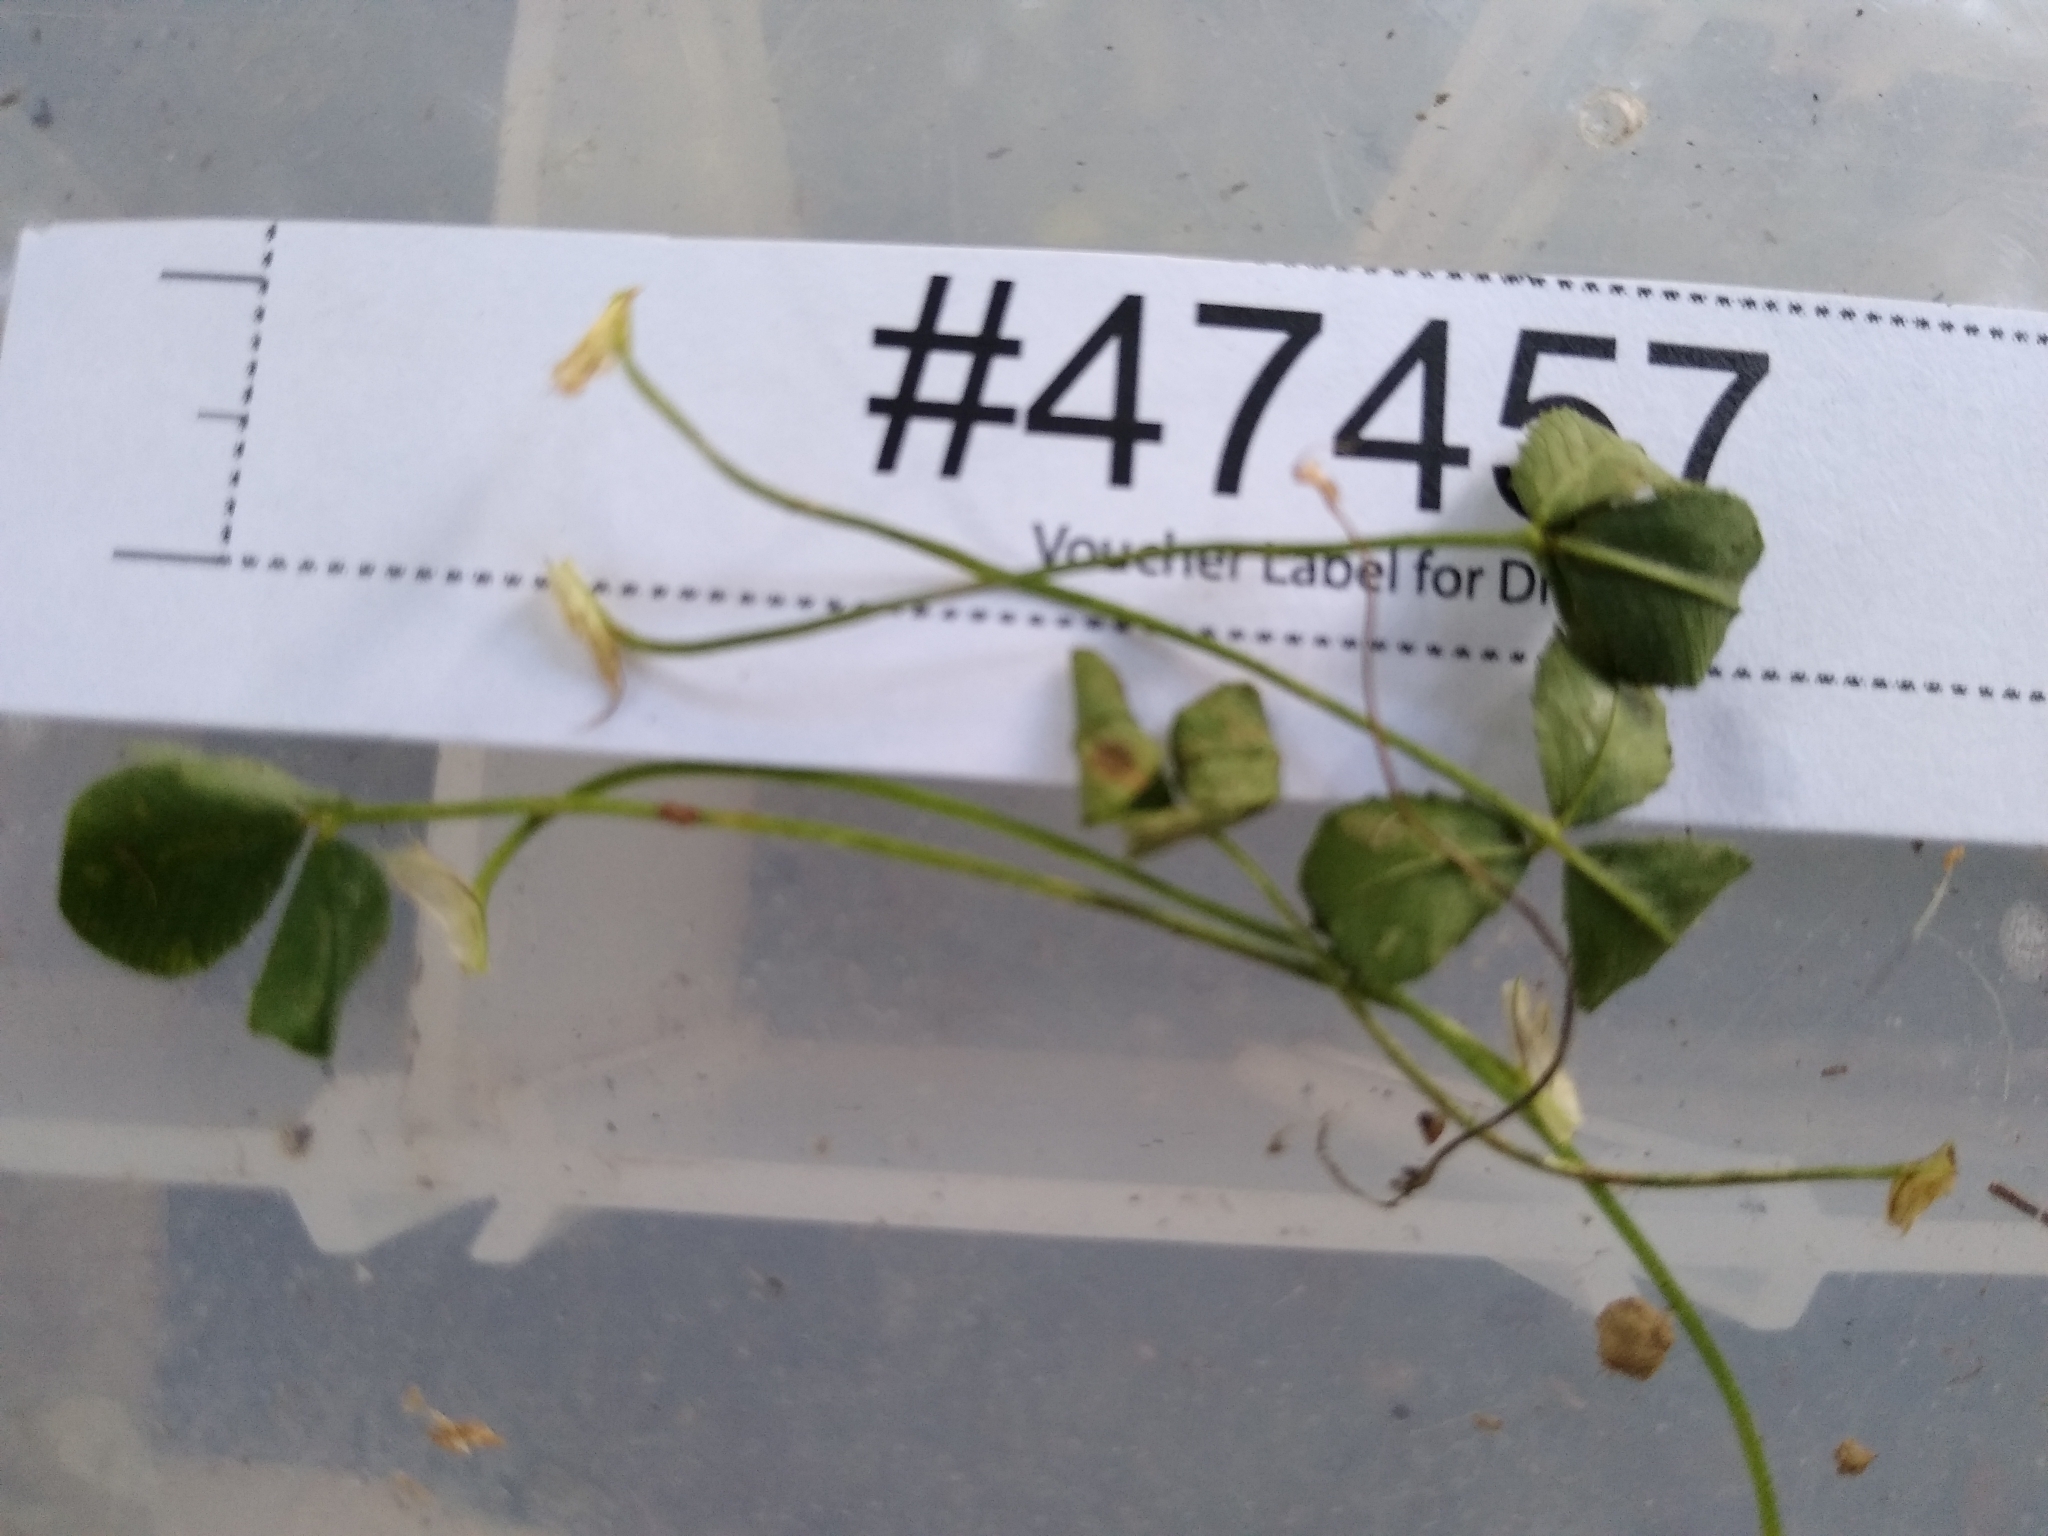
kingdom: Fungi
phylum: Ascomycota
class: Leotiomycetes
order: Helotiales
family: Erysiphaceae
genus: Erysiphe
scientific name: Erysiphe trifoliorum
